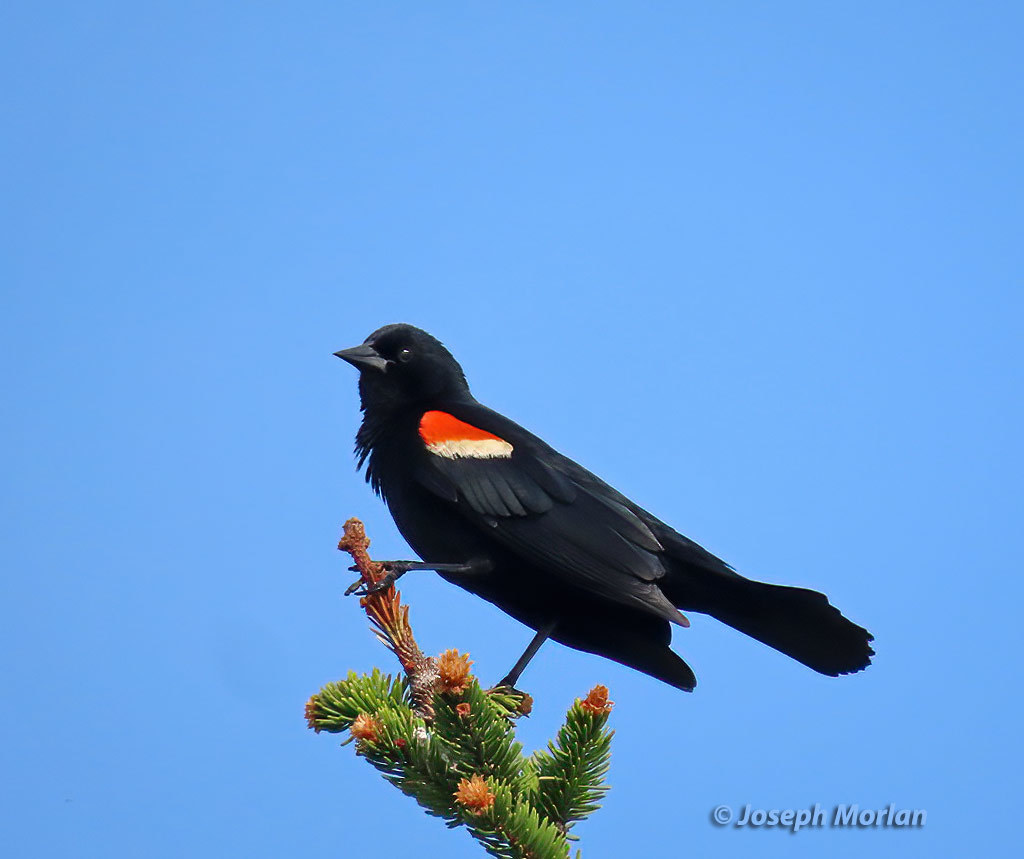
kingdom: Animalia
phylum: Chordata
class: Aves
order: Passeriformes
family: Icteridae
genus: Agelaius
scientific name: Agelaius phoeniceus
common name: Red-winged blackbird
